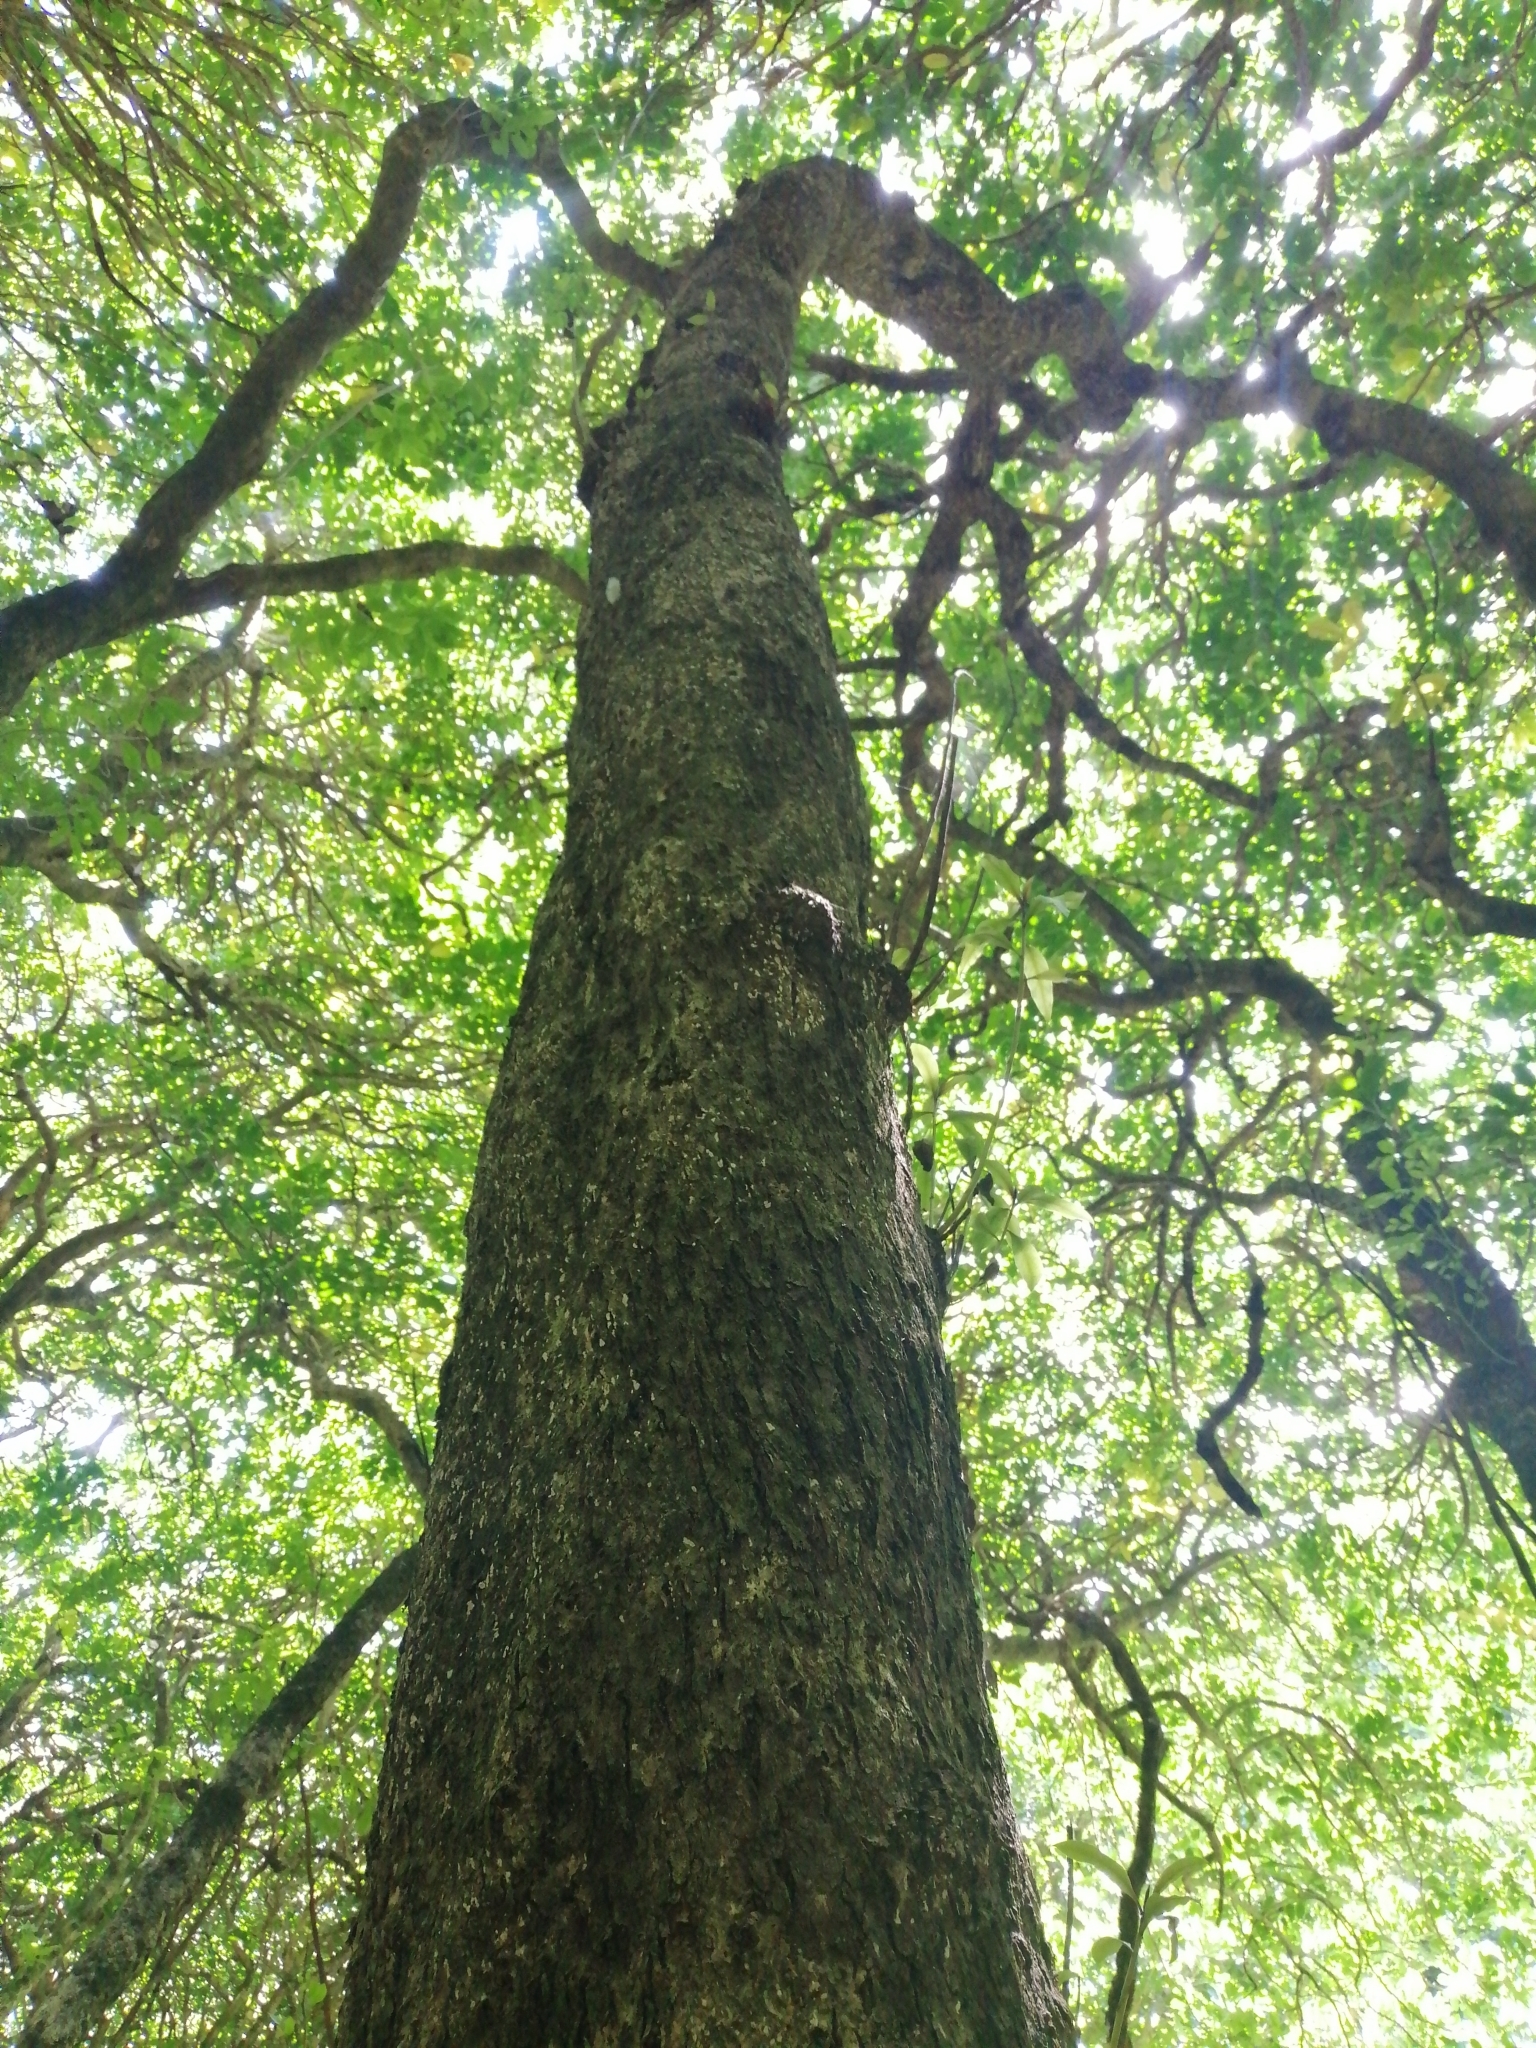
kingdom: Plantae
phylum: Tracheophyta
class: Magnoliopsida
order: Lamiales
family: Scrophulariaceae
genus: Myoporum
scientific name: Myoporum laetum
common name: Ngaio tree
